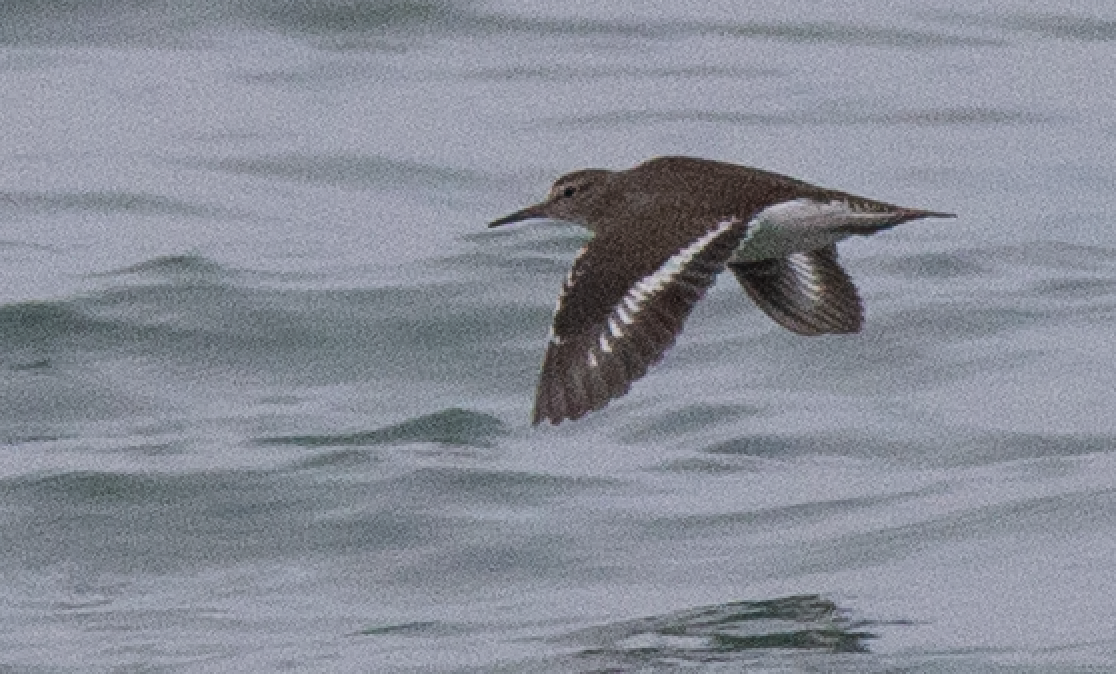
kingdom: Animalia
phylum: Chordata
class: Aves
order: Charadriiformes
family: Scolopacidae
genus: Actitis
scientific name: Actitis hypoleucos
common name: Common sandpiper
